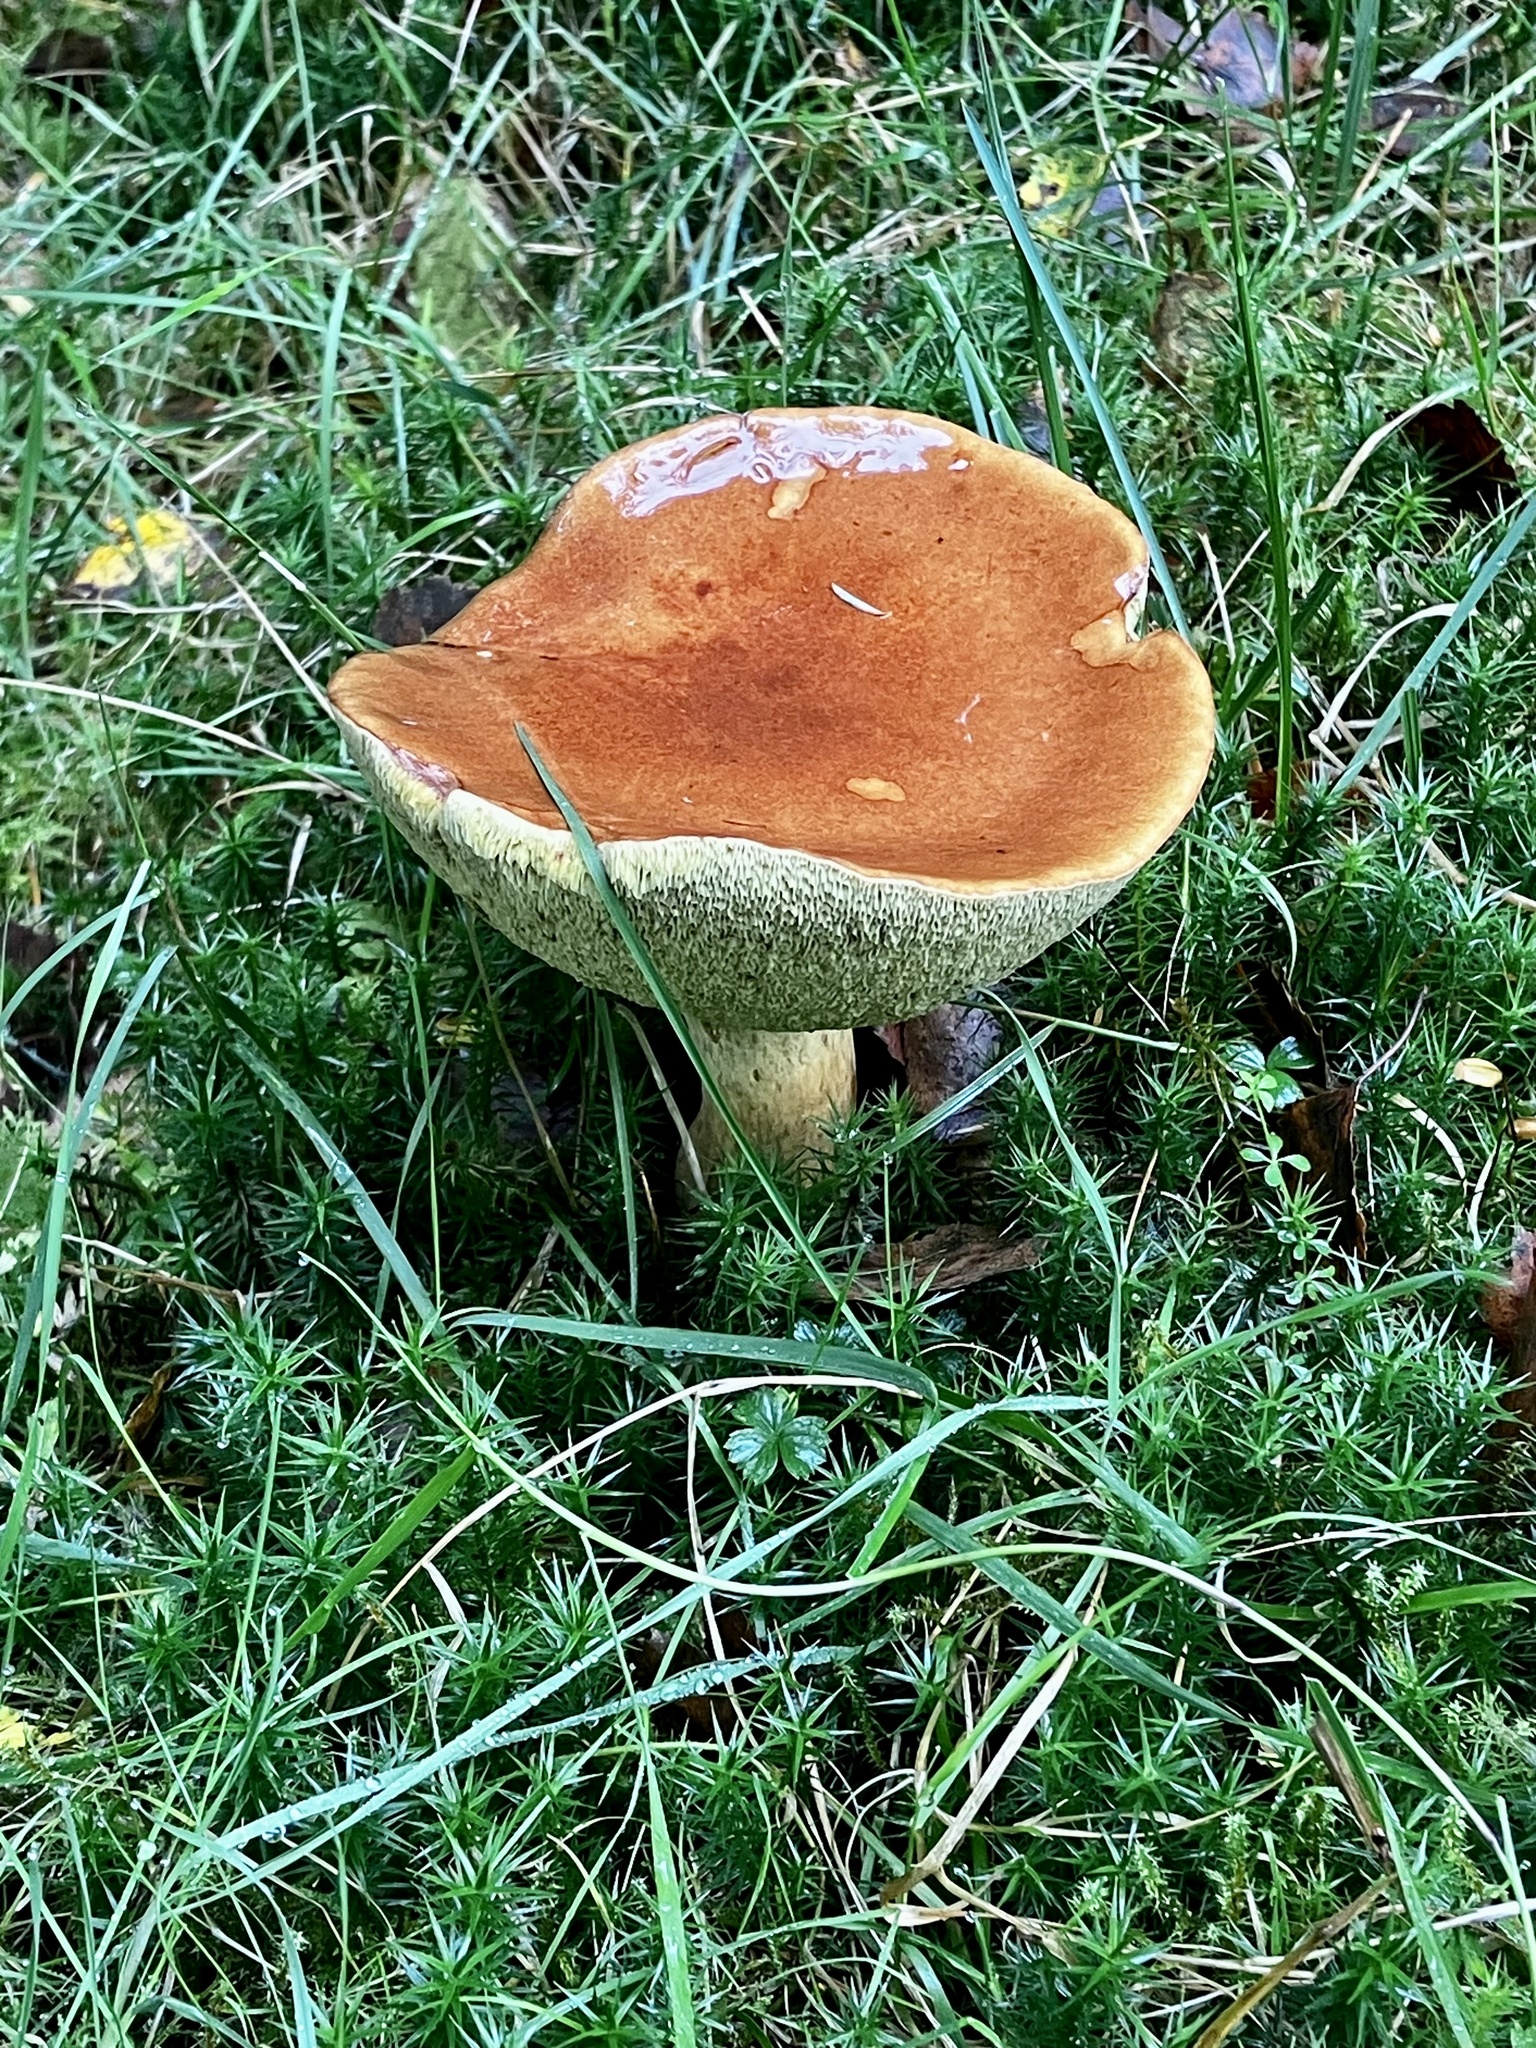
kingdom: Fungi
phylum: Basidiomycota
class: Agaricomycetes
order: Boletales
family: Boletaceae
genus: Imleria
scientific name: Imleria badia
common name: Bay bolete
